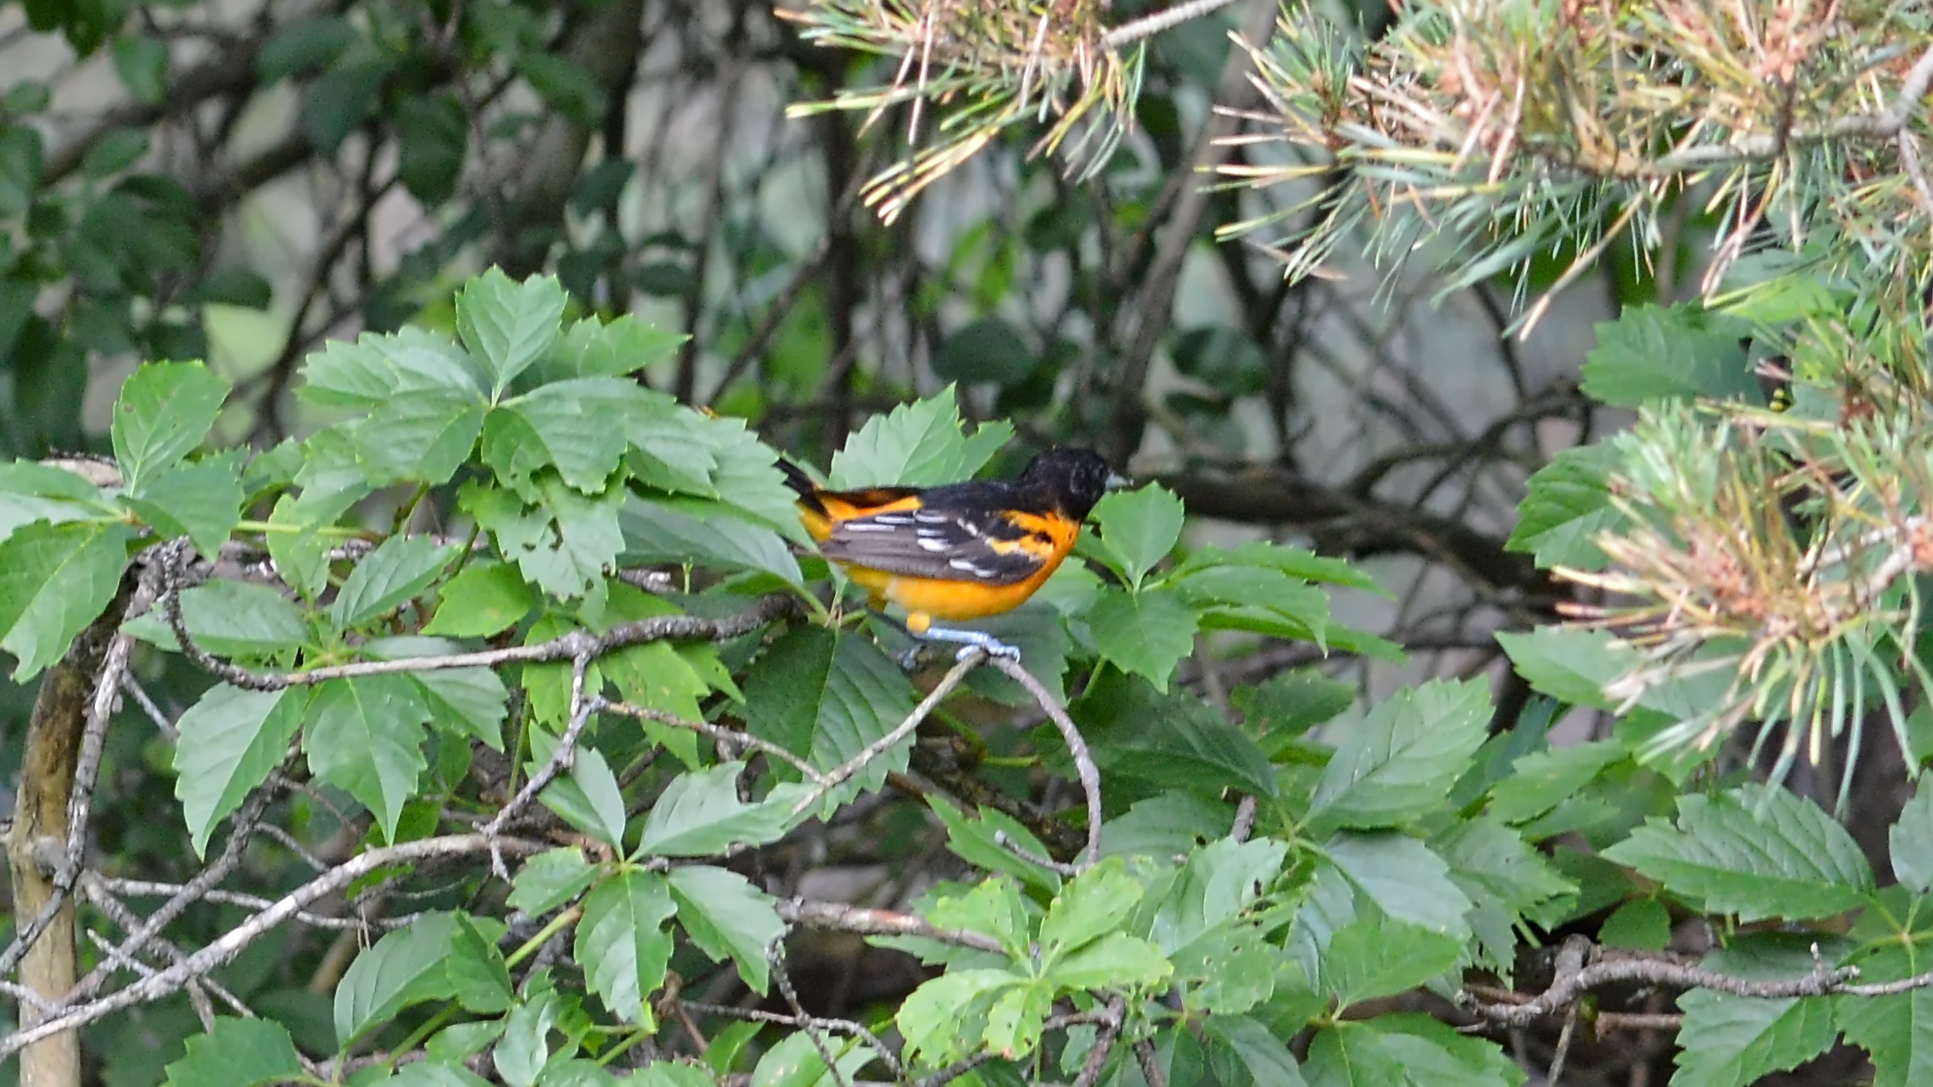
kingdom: Animalia
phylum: Chordata
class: Aves
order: Passeriformes
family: Icteridae
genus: Icterus
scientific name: Icterus galbula
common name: Baltimore oriole
